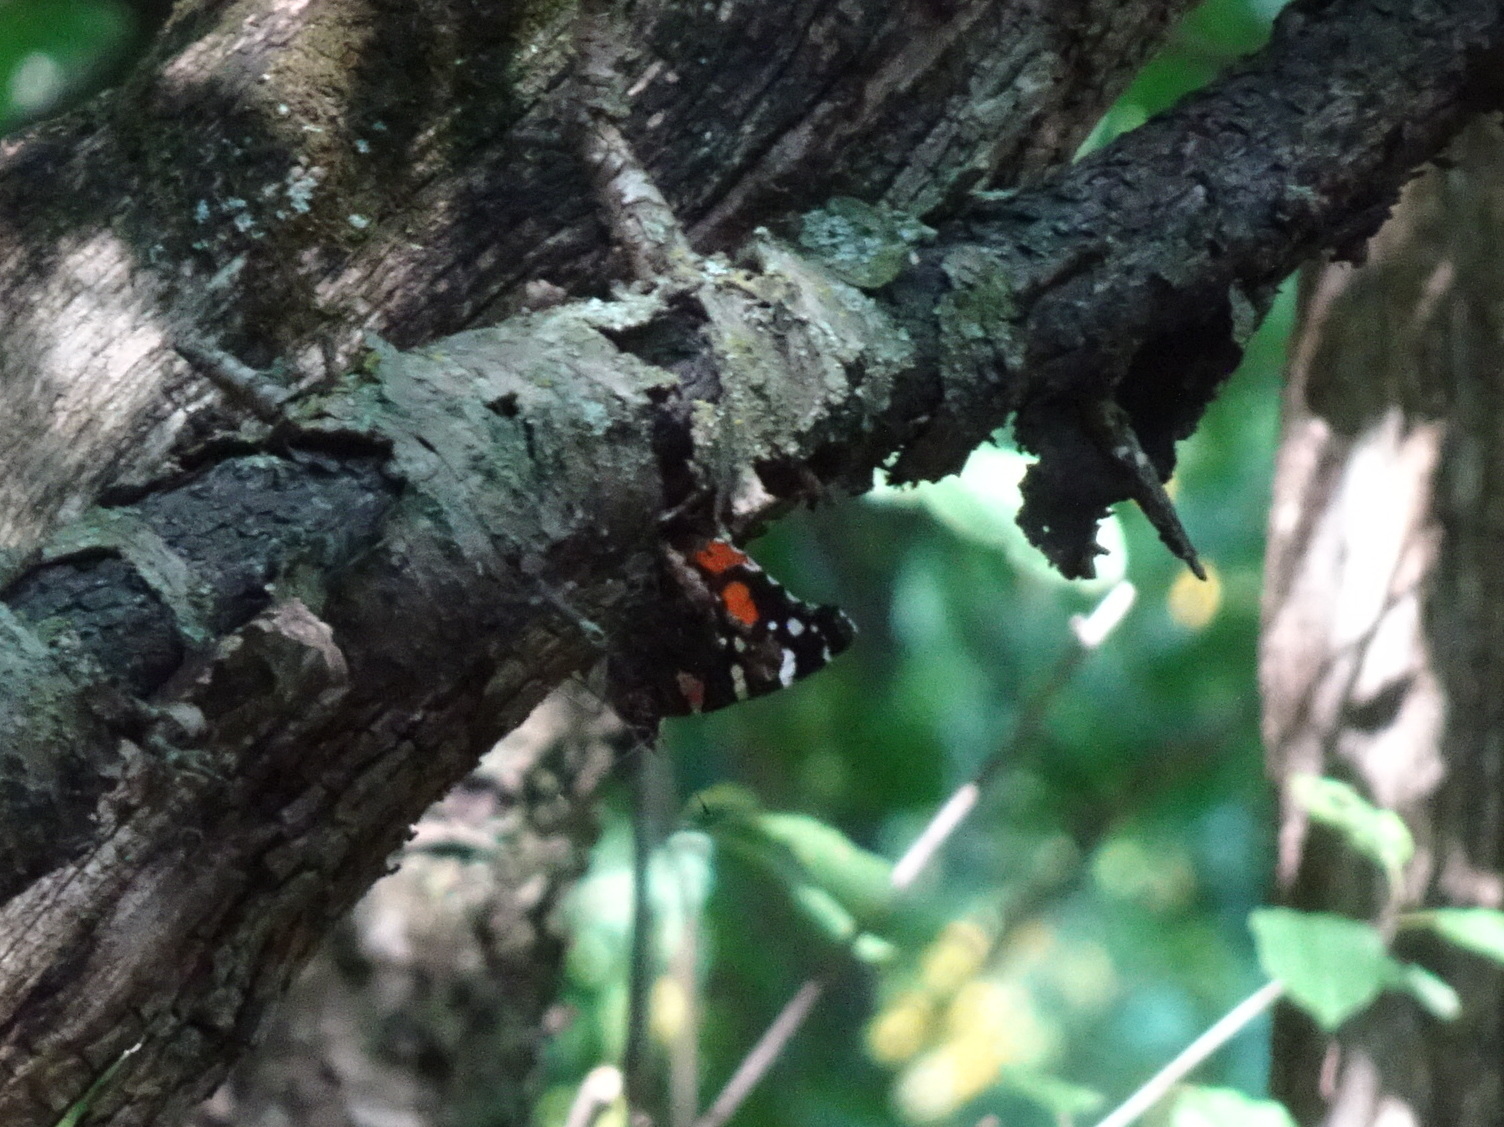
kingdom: Animalia
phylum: Arthropoda
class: Insecta
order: Lepidoptera
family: Nymphalidae
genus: Vanessa
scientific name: Vanessa atalanta
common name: Red admiral
